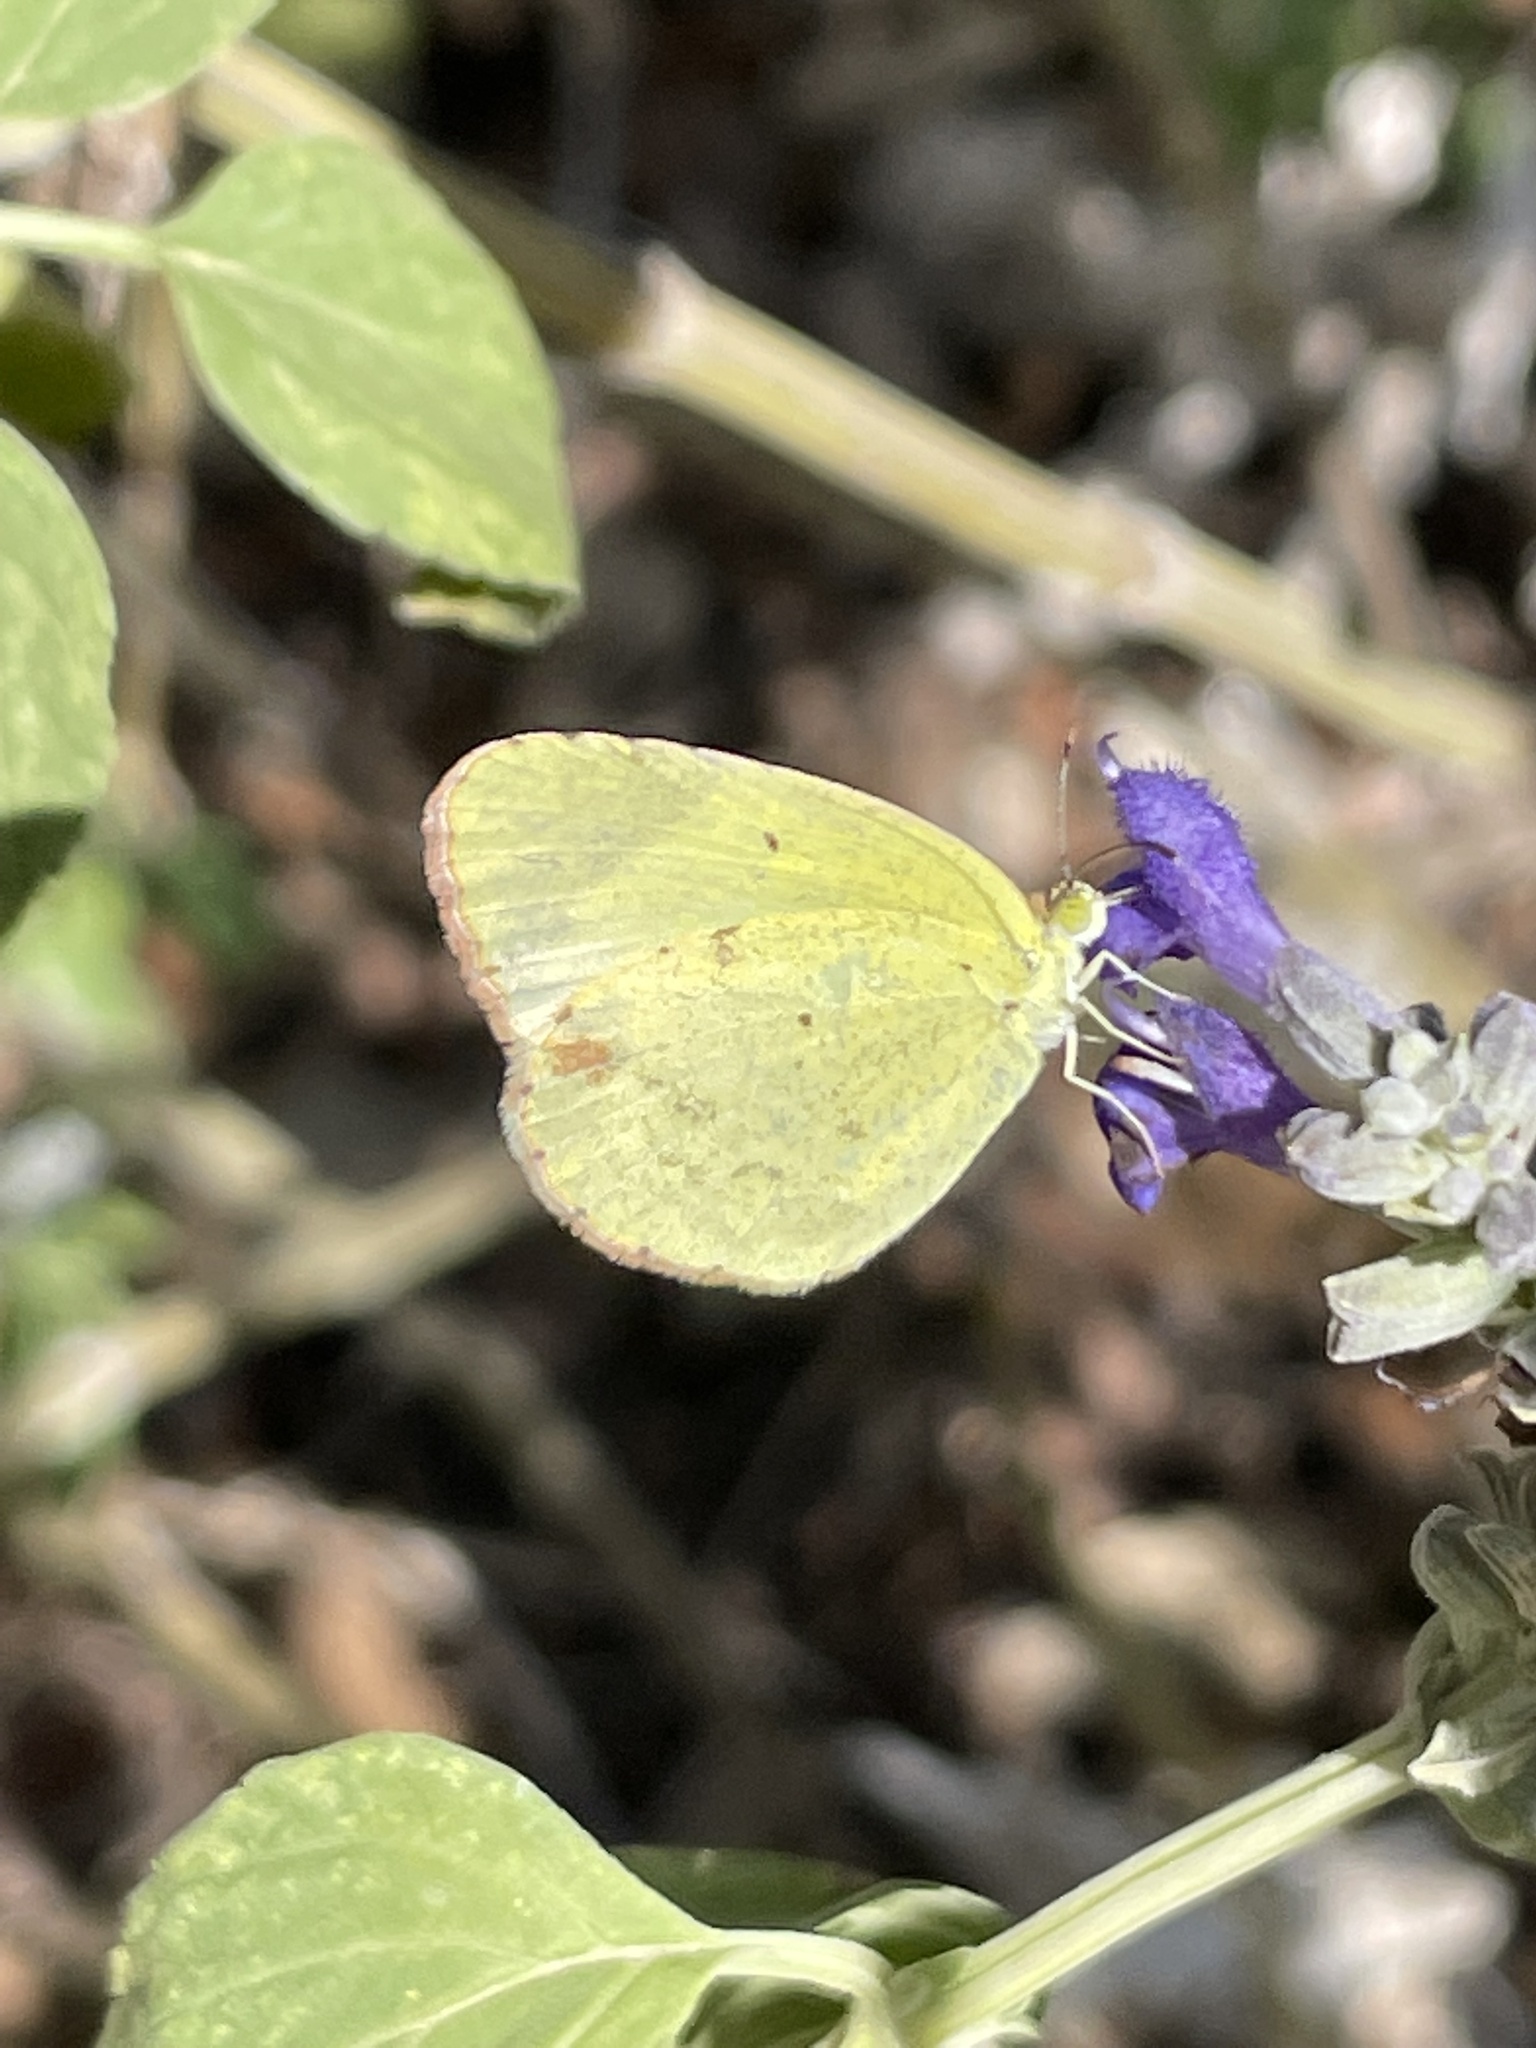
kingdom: Animalia
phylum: Arthropoda
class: Insecta
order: Lepidoptera
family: Pieridae
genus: Pyrisitia
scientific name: Pyrisitia lisa
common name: Little yellow
